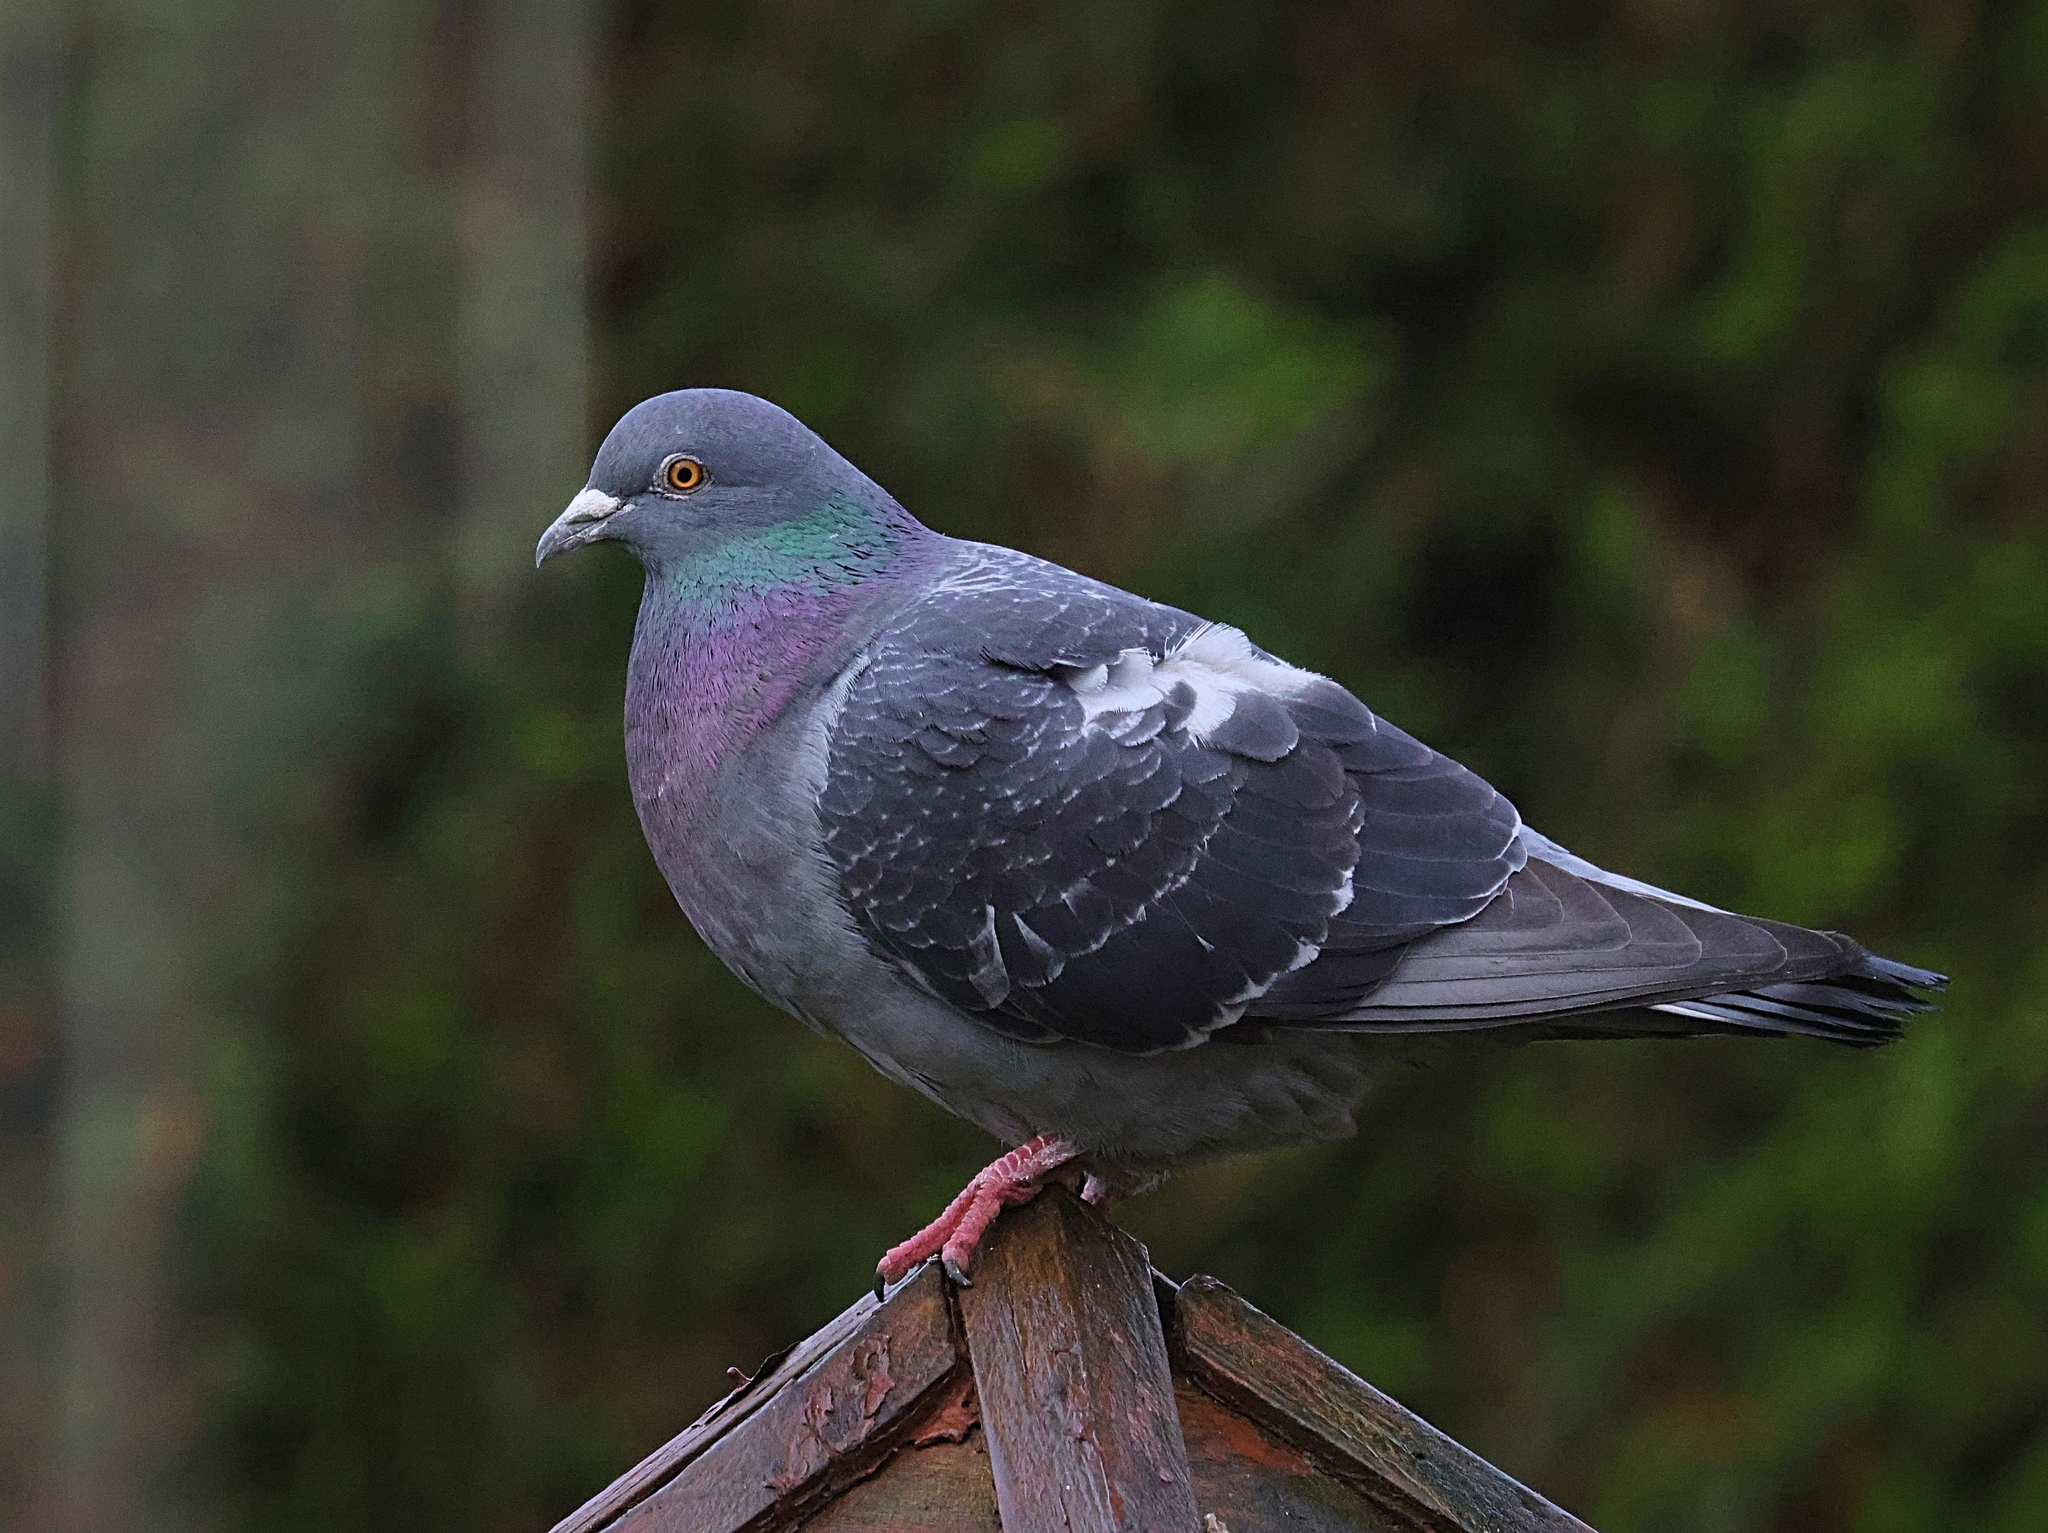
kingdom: Animalia
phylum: Chordata
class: Aves
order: Columbiformes
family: Columbidae
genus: Columba
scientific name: Columba livia
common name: Rock pigeon
